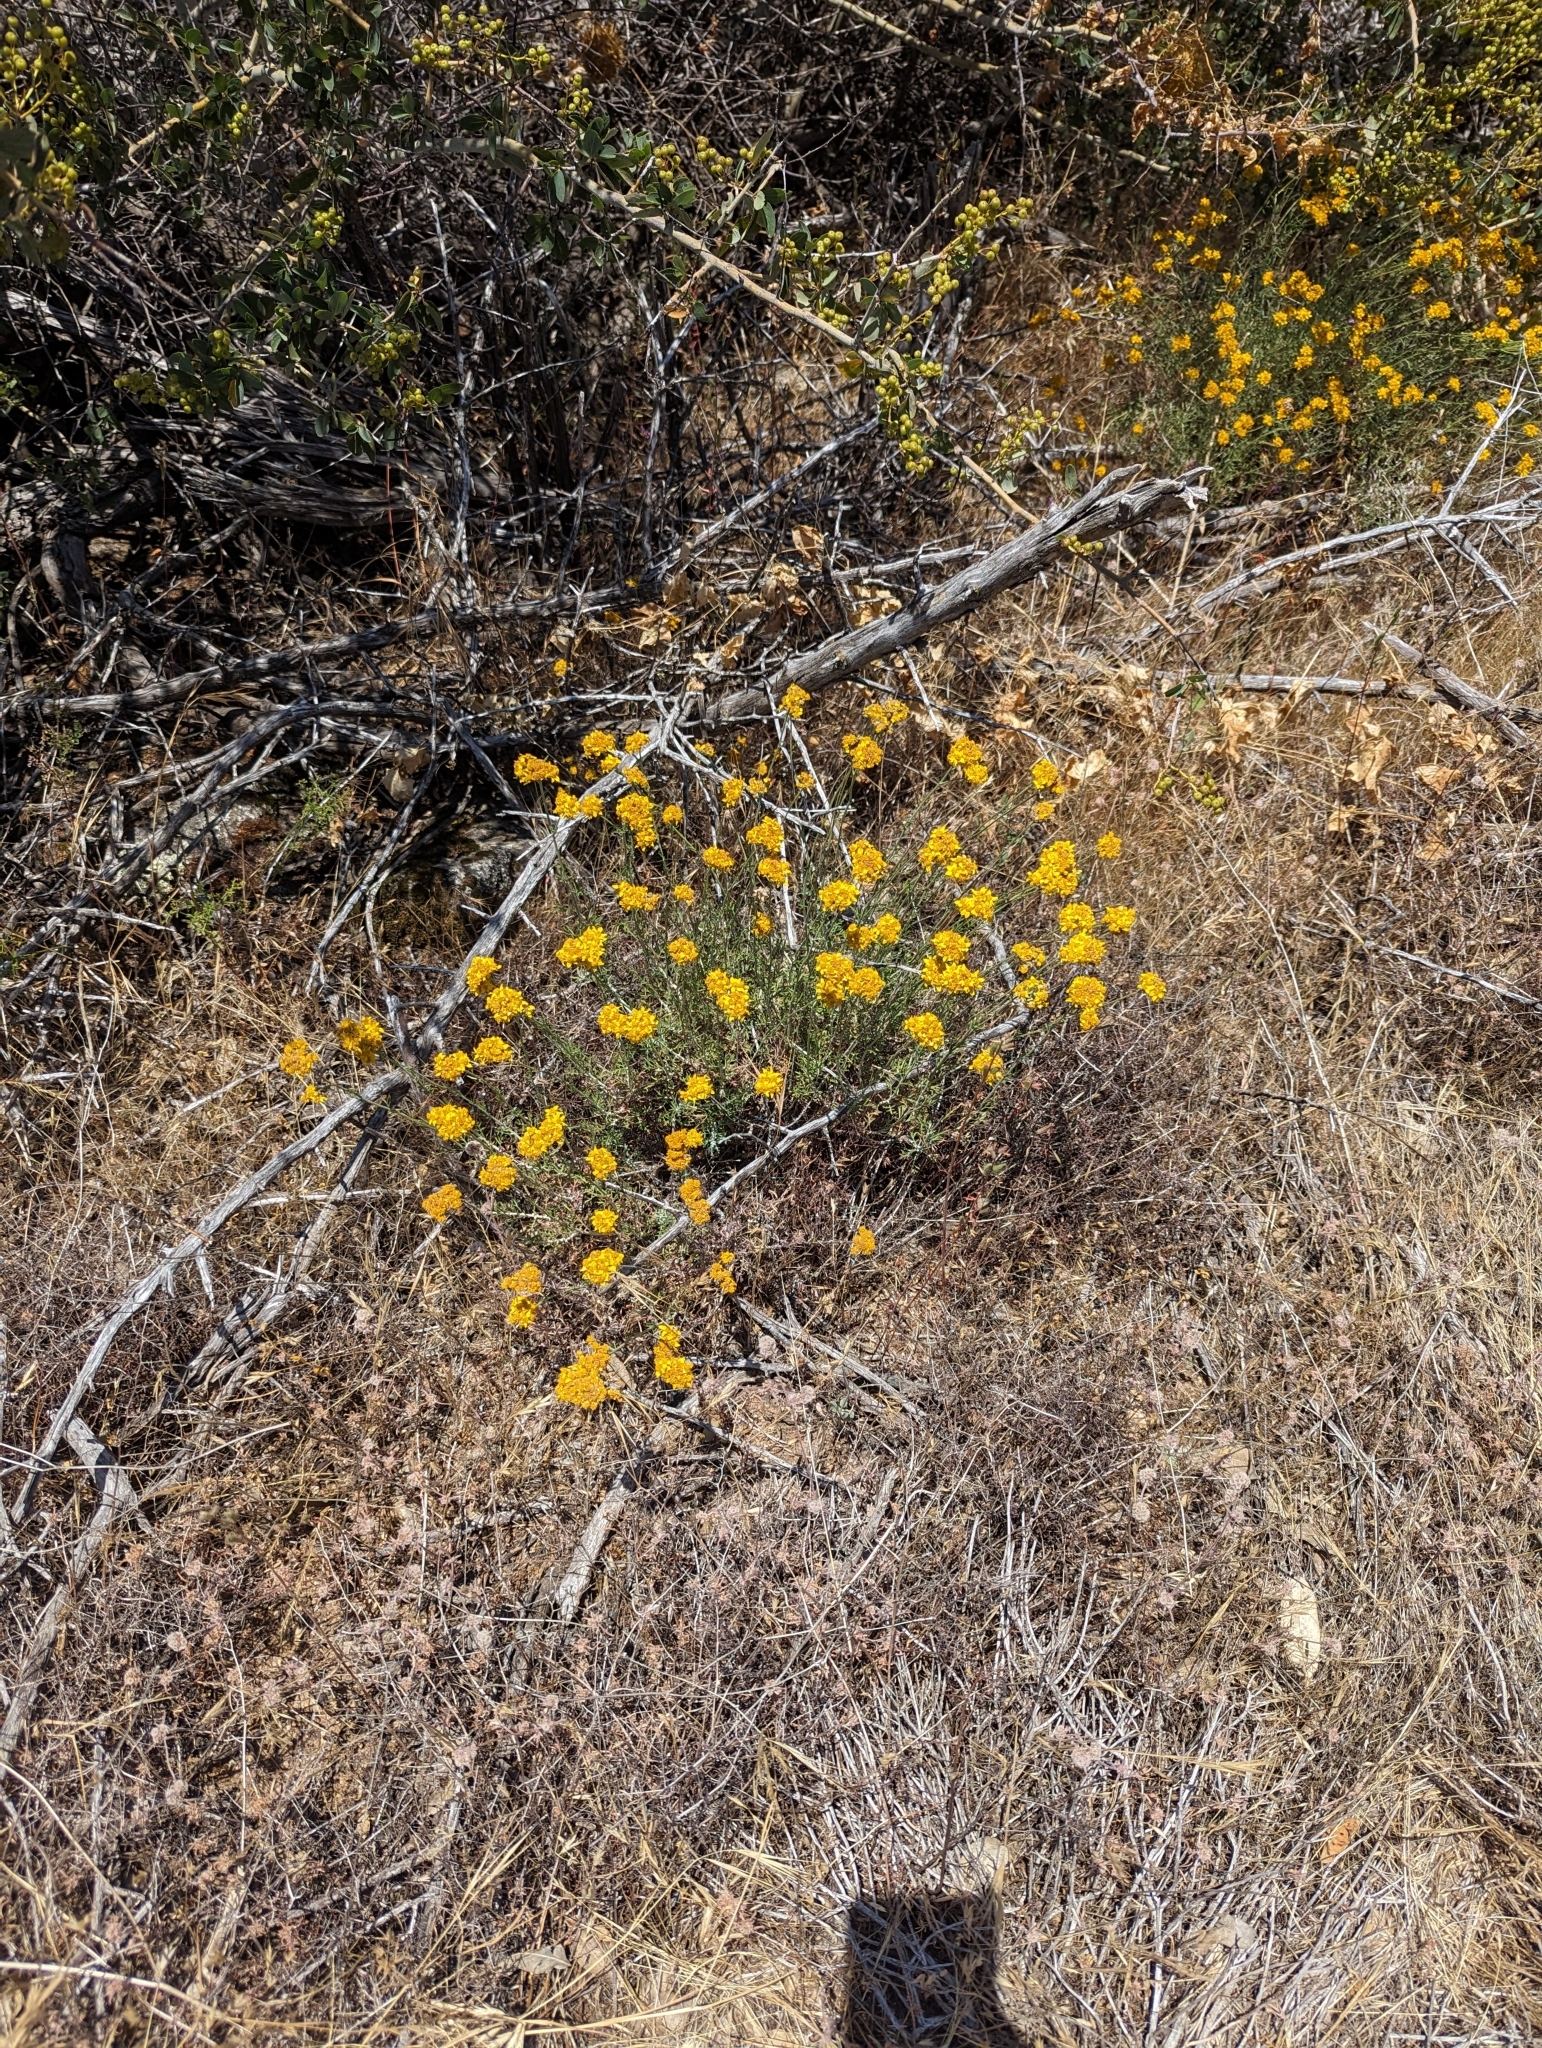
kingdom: Plantae
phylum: Tracheophyta
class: Magnoliopsida
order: Caryophyllales
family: Polygonaceae
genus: Eriogonum
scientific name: Eriogonum umbellatum
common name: Sulfur-buckwheat
